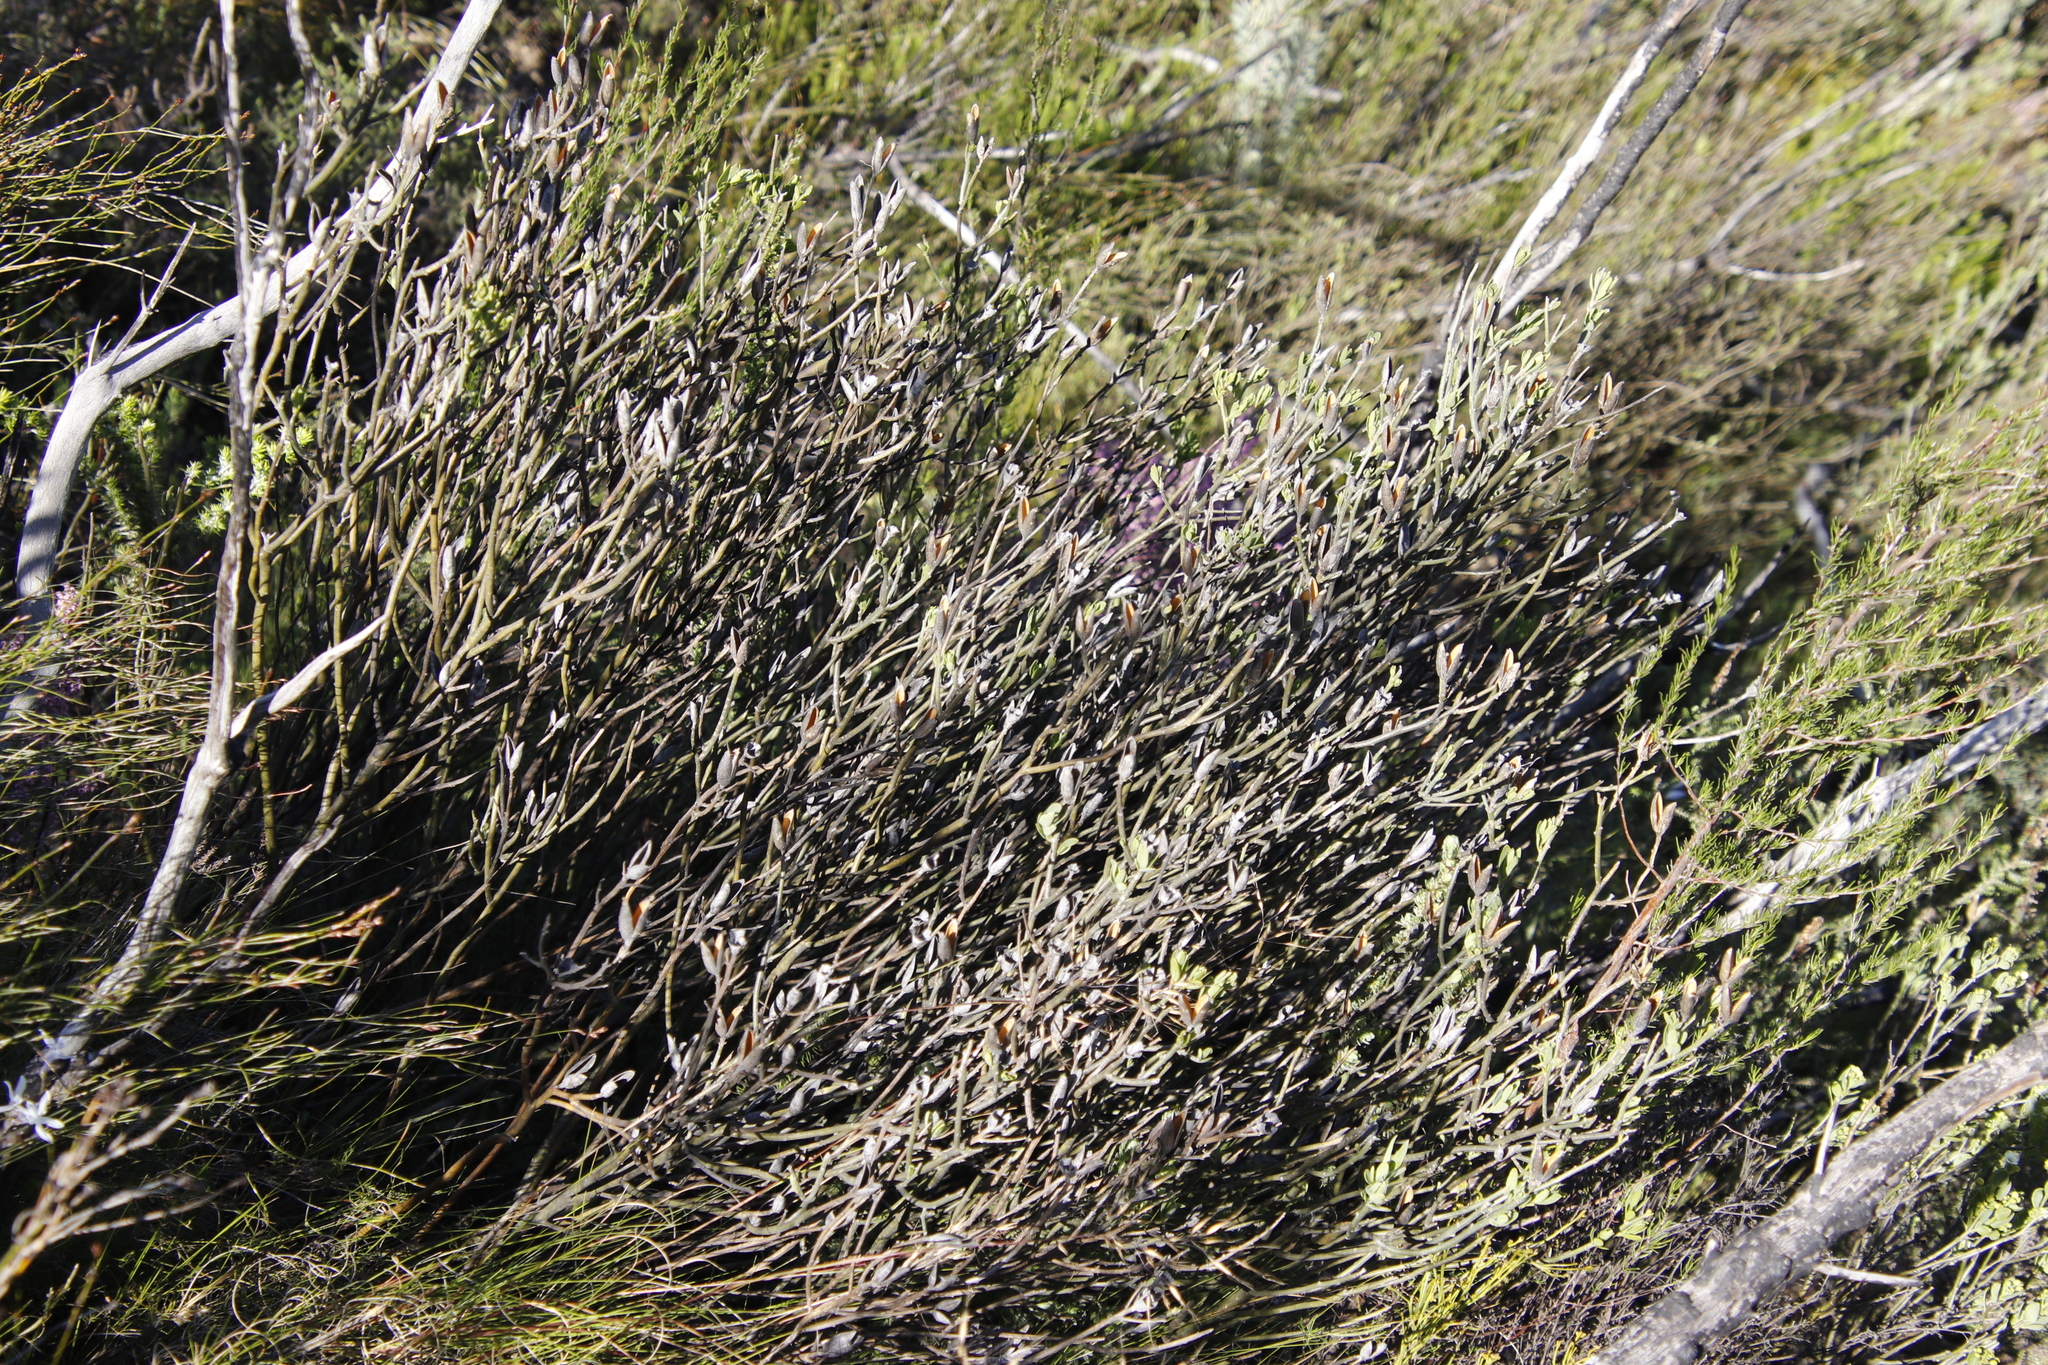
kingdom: Plantae
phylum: Tracheophyta
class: Magnoliopsida
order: Solanales
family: Montiniaceae
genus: Montinia
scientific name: Montinia caryophyllacea
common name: Wild clove-bush
